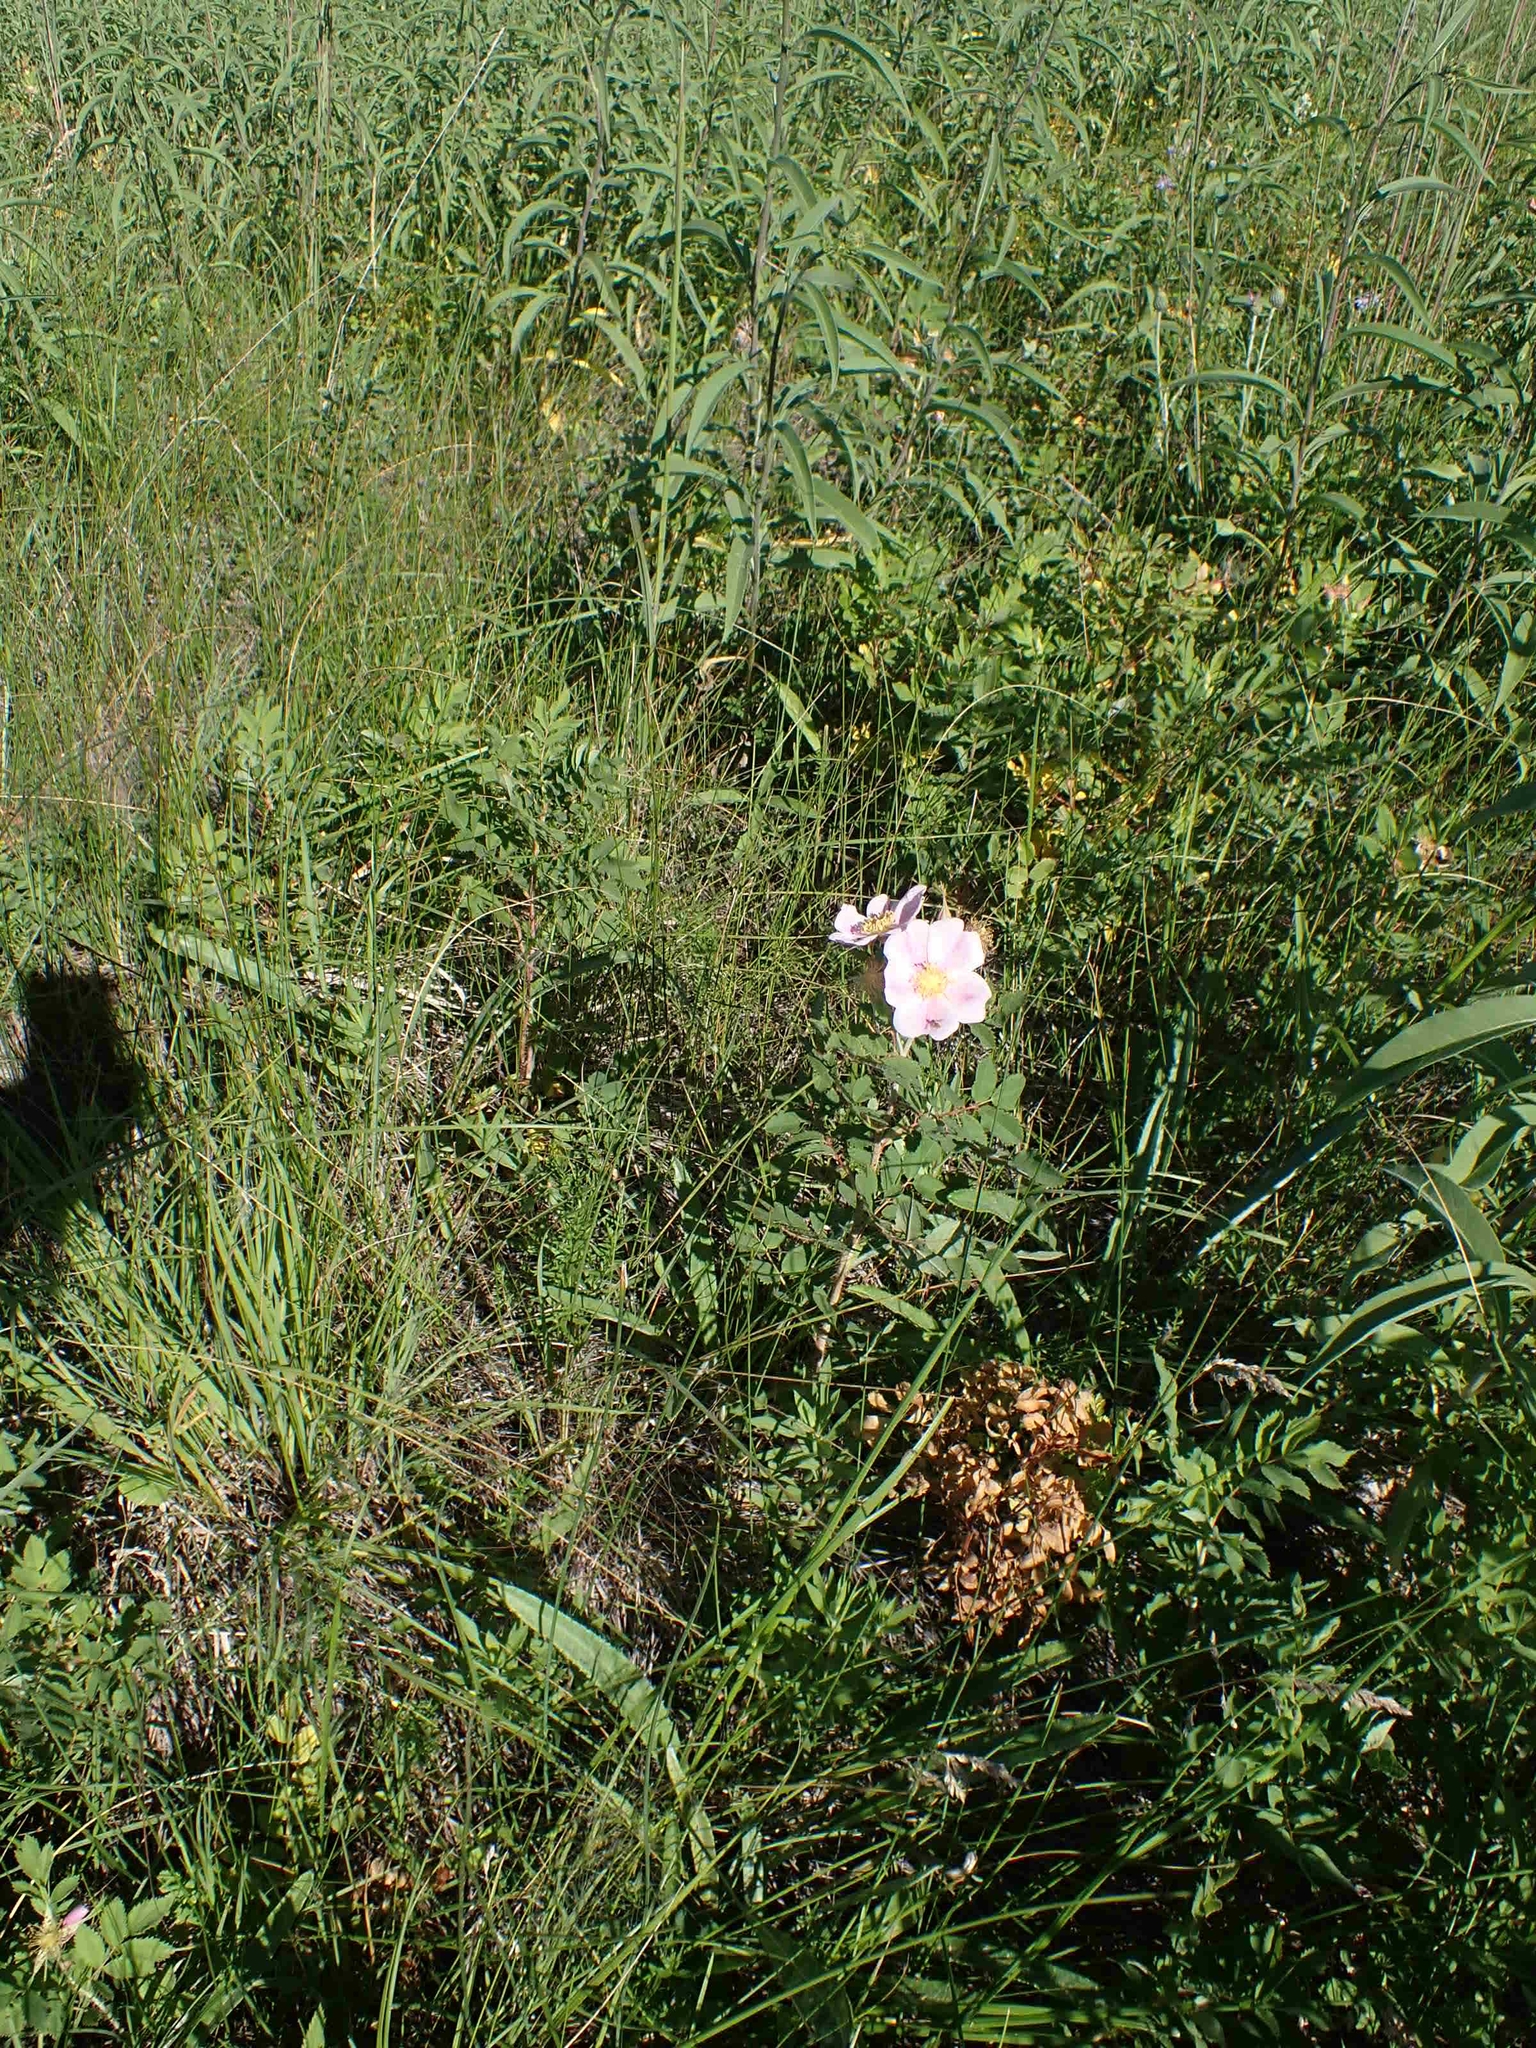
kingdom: Plantae
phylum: Tracheophyta
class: Magnoliopsida
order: Rosales
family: Rosaceae
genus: Rosa
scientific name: Rosa arkansana
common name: Prairie rose
